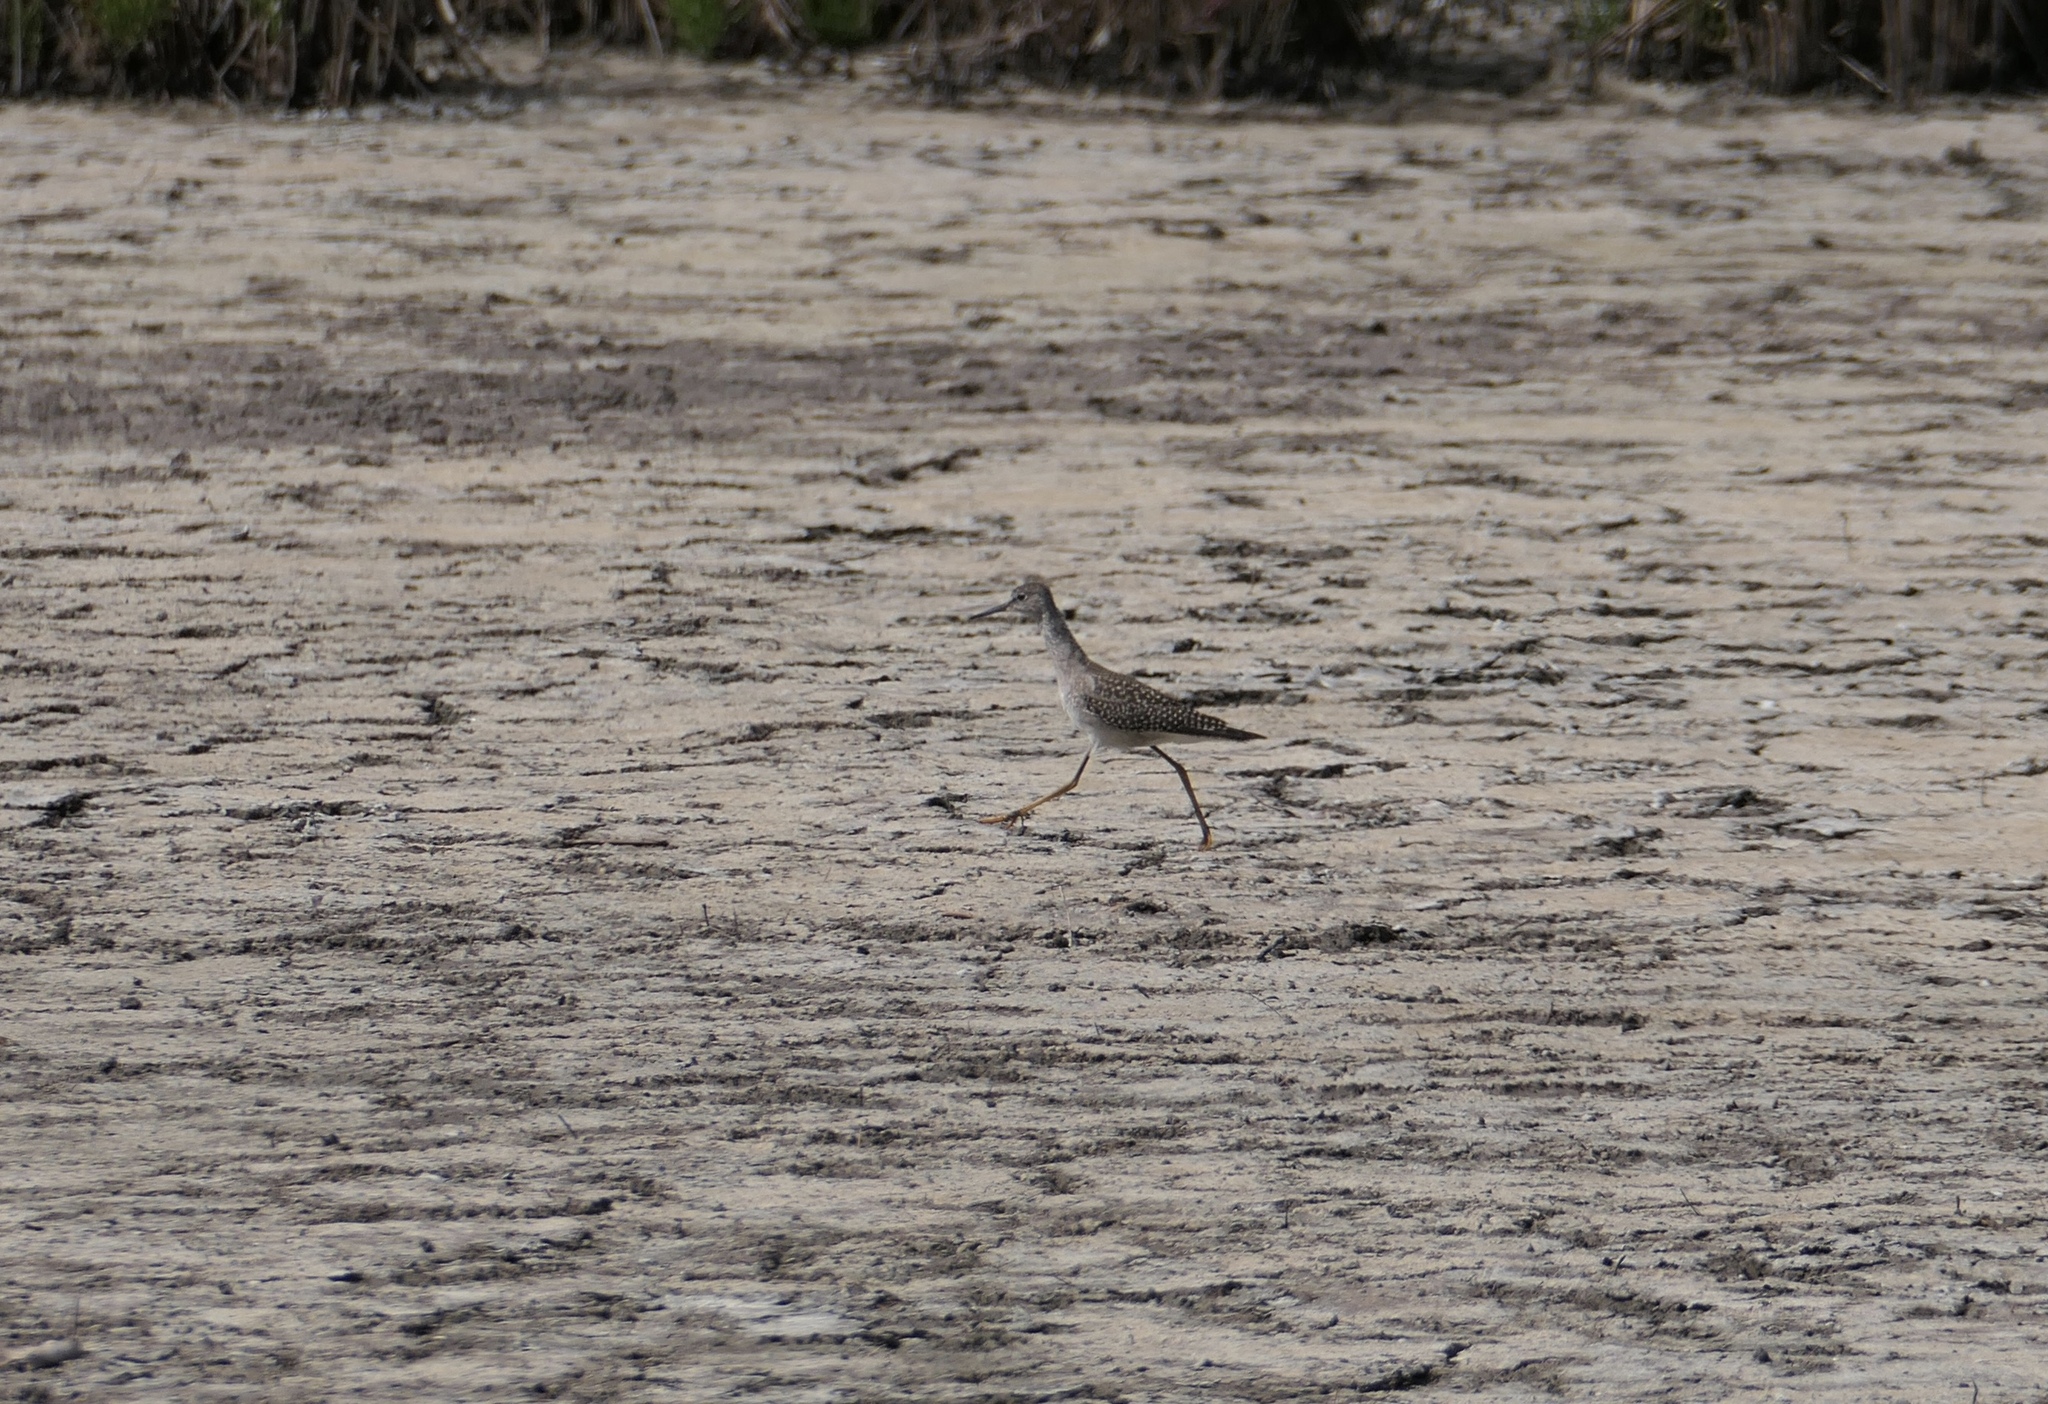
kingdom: Animalia
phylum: Chordata
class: Aves
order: Charadriiformes
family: Scolopacidae
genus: Tringa
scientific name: Tringa flavipes
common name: Lesser yellowlegs
